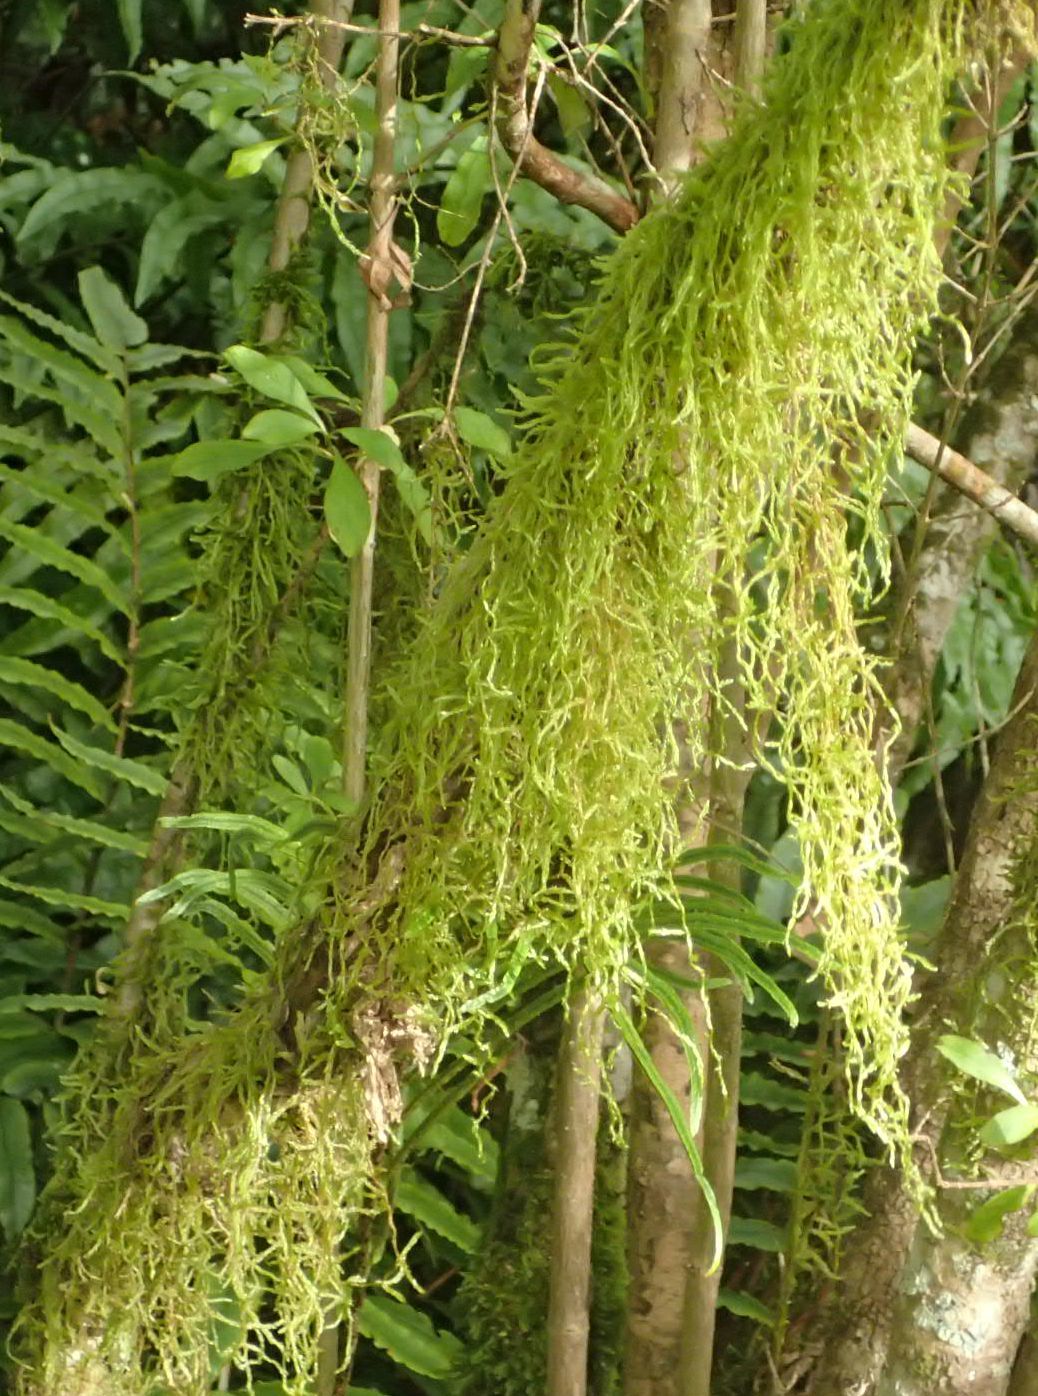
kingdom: Plantae
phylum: Bryophyta
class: Bryopsida
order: Hypnales
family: Lembophyllaceae
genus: Weymouthia
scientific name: Weymouthia mollis
